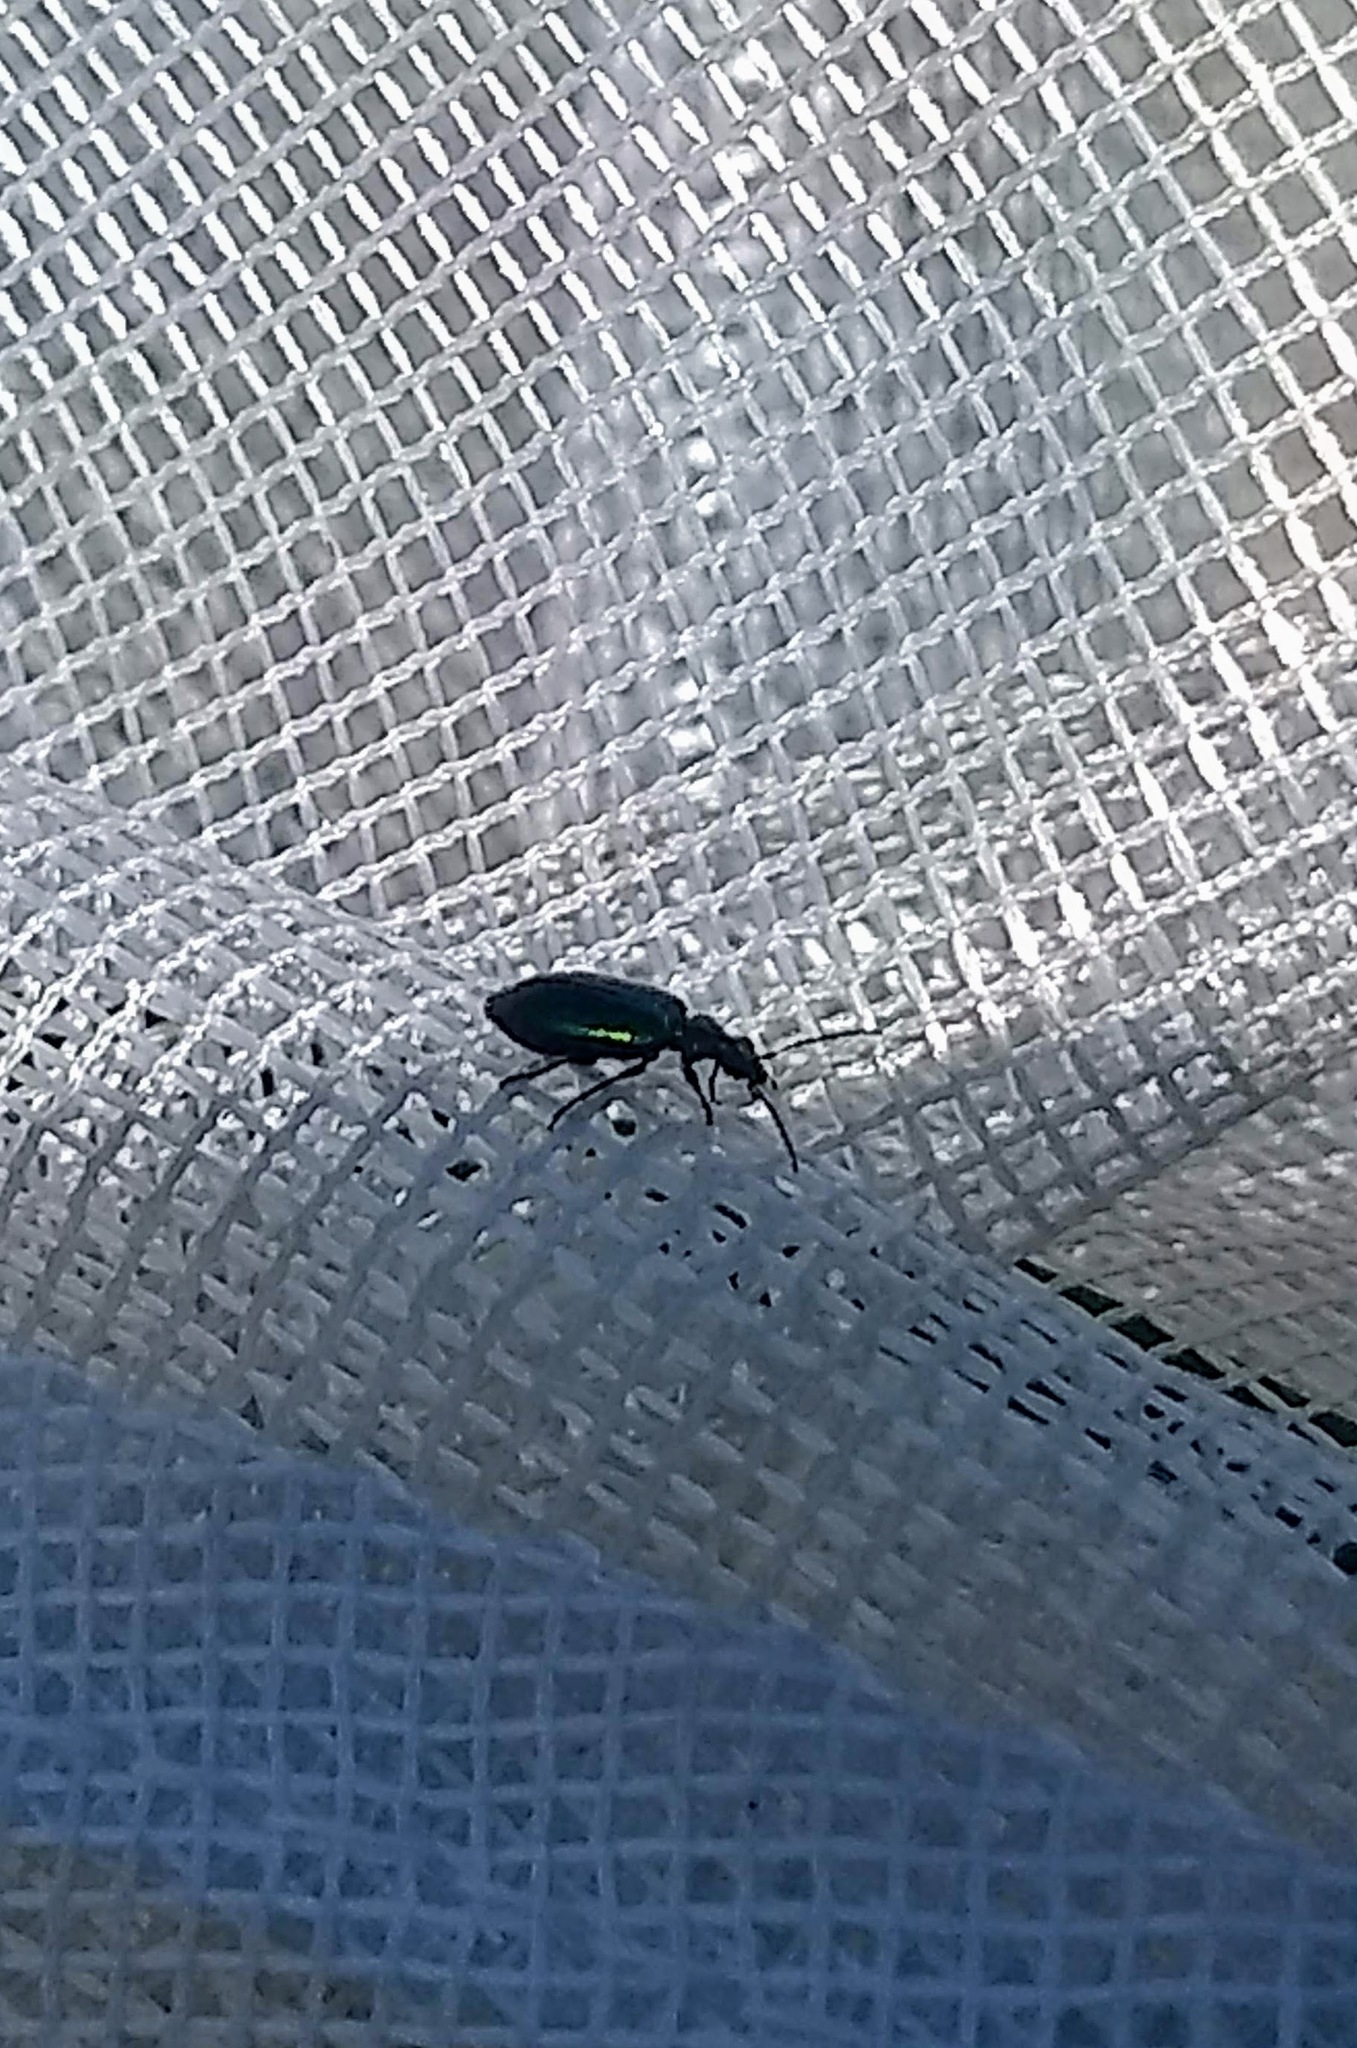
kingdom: Animalia
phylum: Arthropoda
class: Insecta
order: Coleoptera
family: Carabidae
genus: Lebia
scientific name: Lebia viridis
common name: Flower lebia beetle
